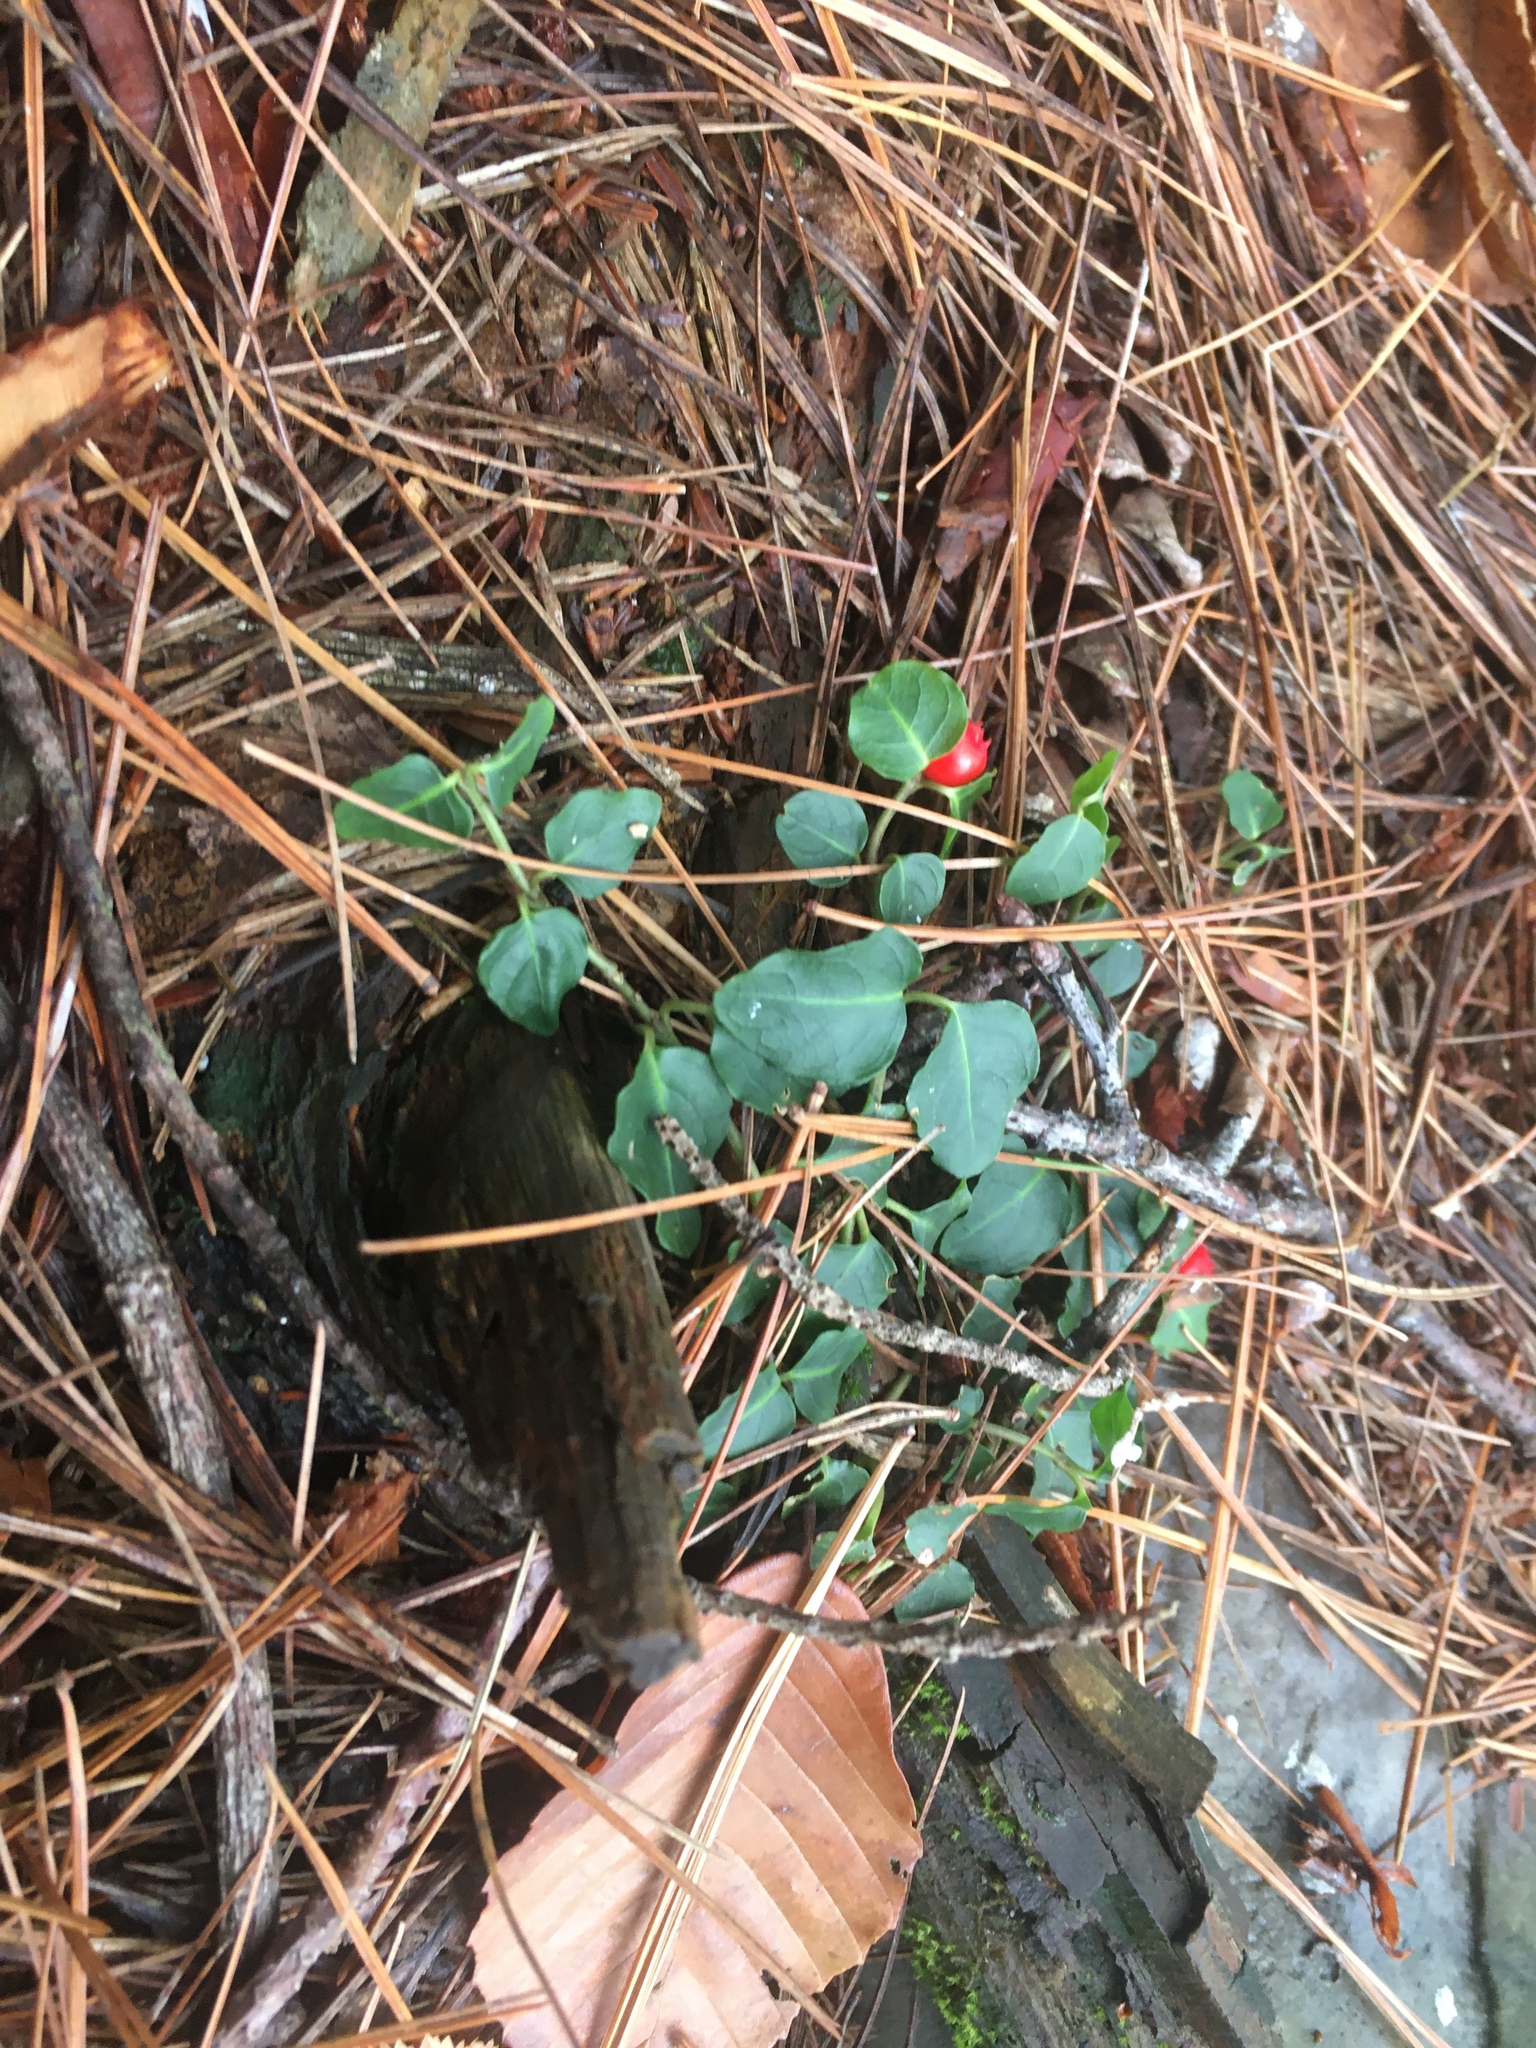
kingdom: Plantae
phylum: Tracheophyta
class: Magnoliopsida
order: Gentianales
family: Rubiaceae
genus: Mitchella
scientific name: Mitchella repens
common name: Partridge-berry
